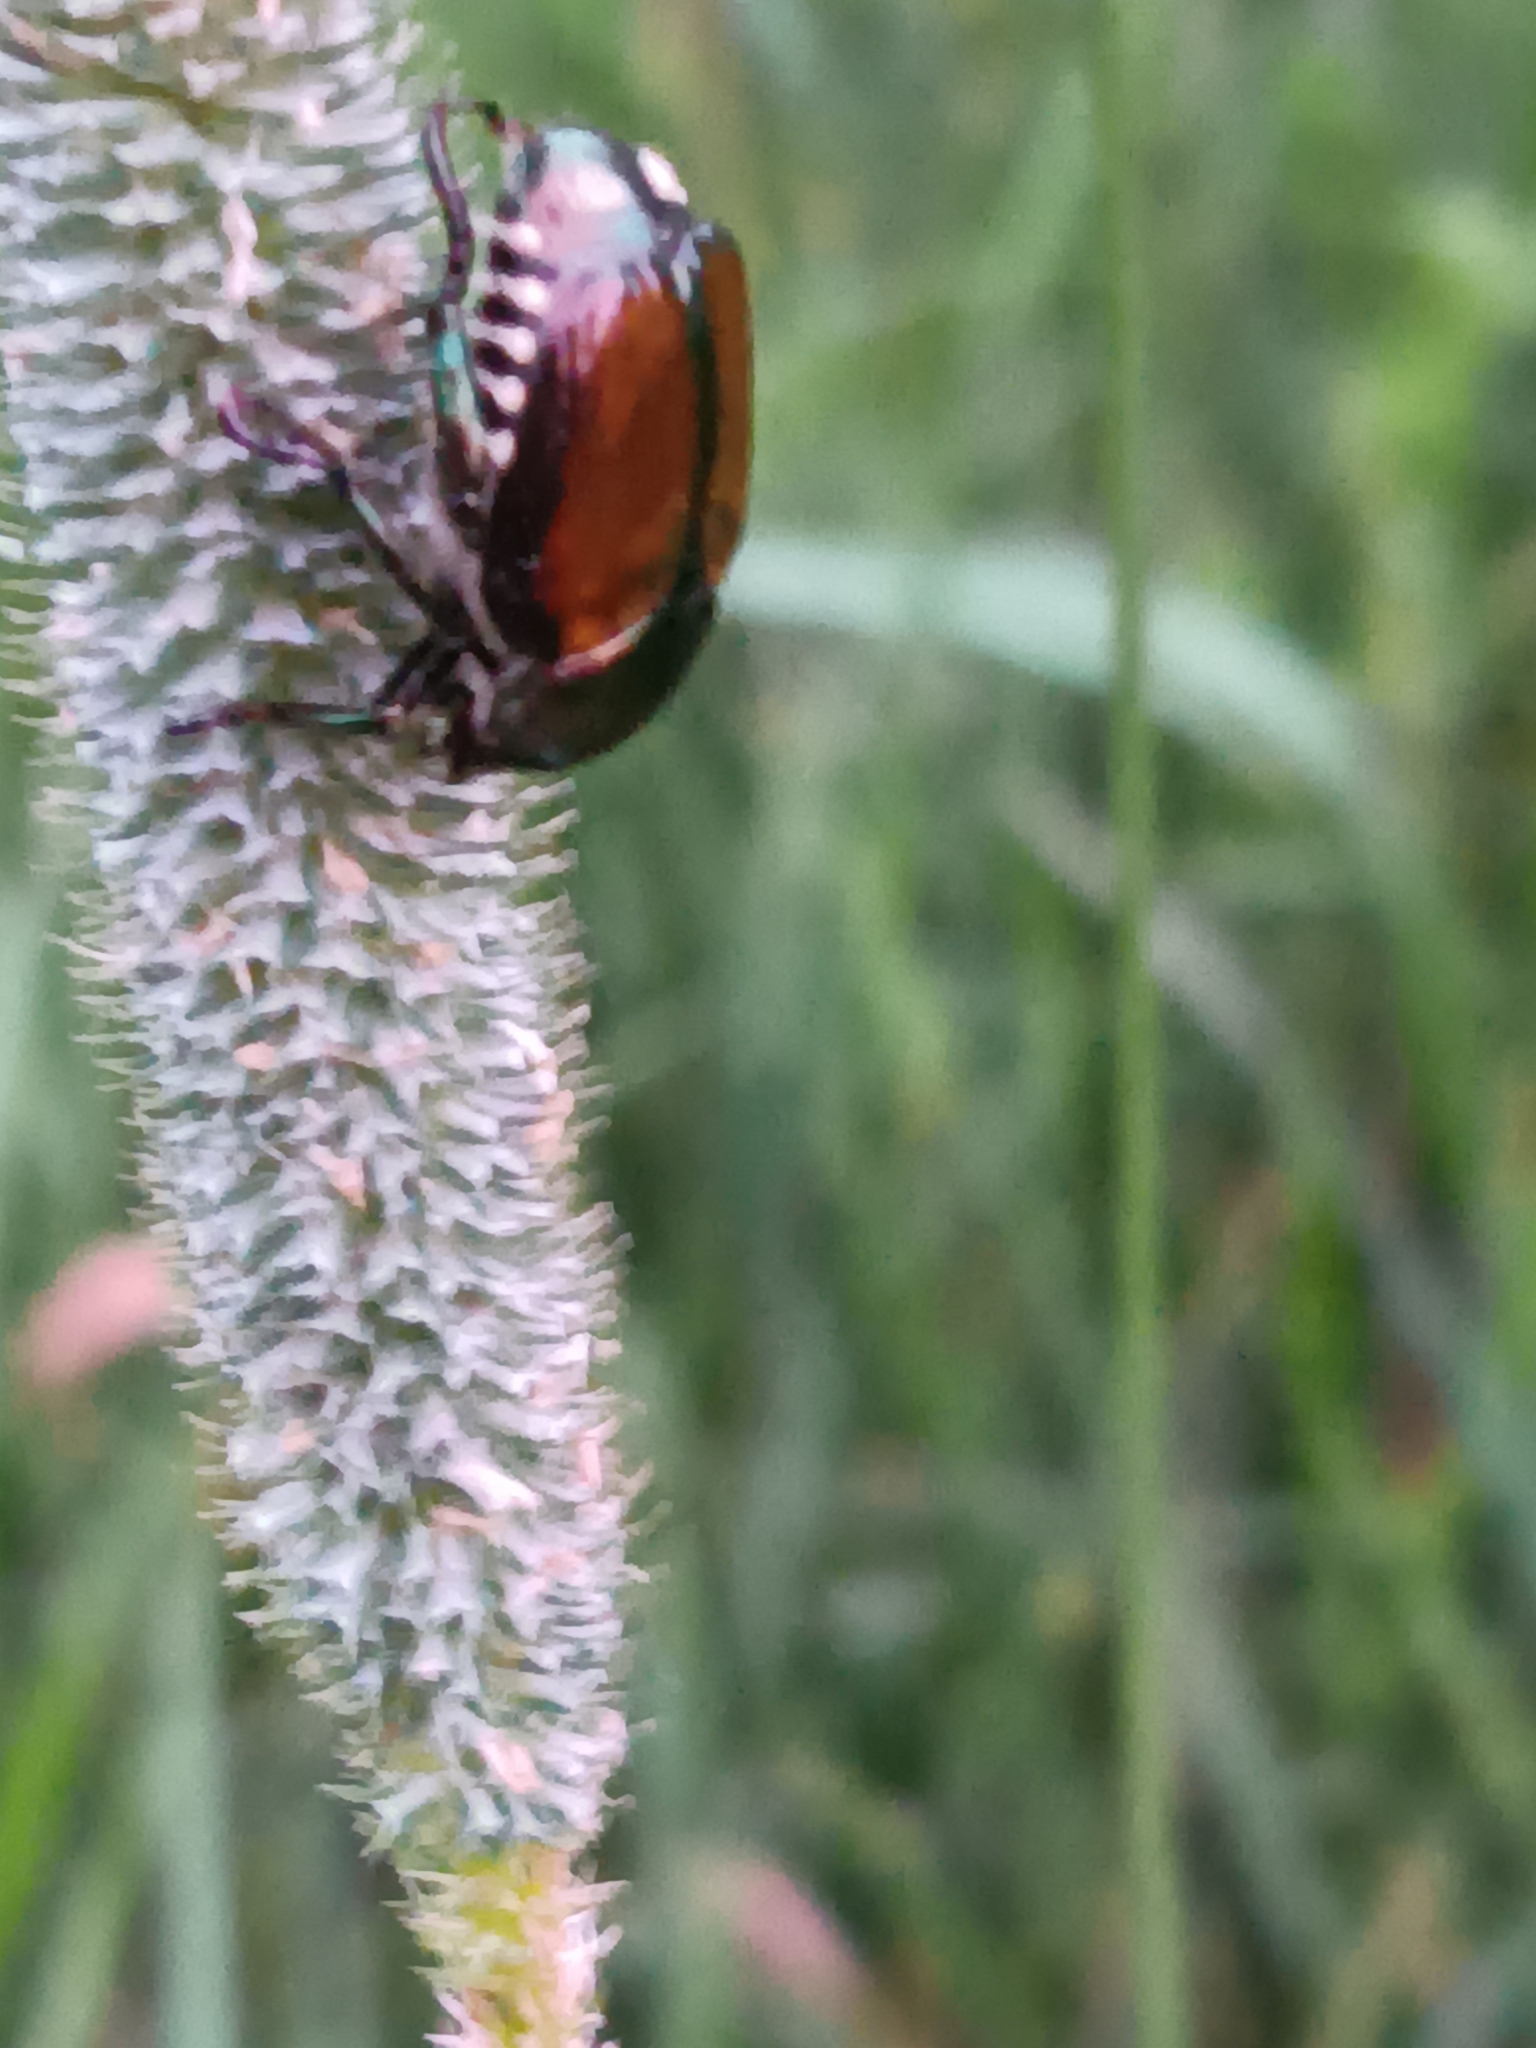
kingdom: Animalia
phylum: Arthropoda
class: Insecta
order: Coleoptera
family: Scarabaeidae
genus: Popillia
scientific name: Popillia japonica
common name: Japanese beetle
